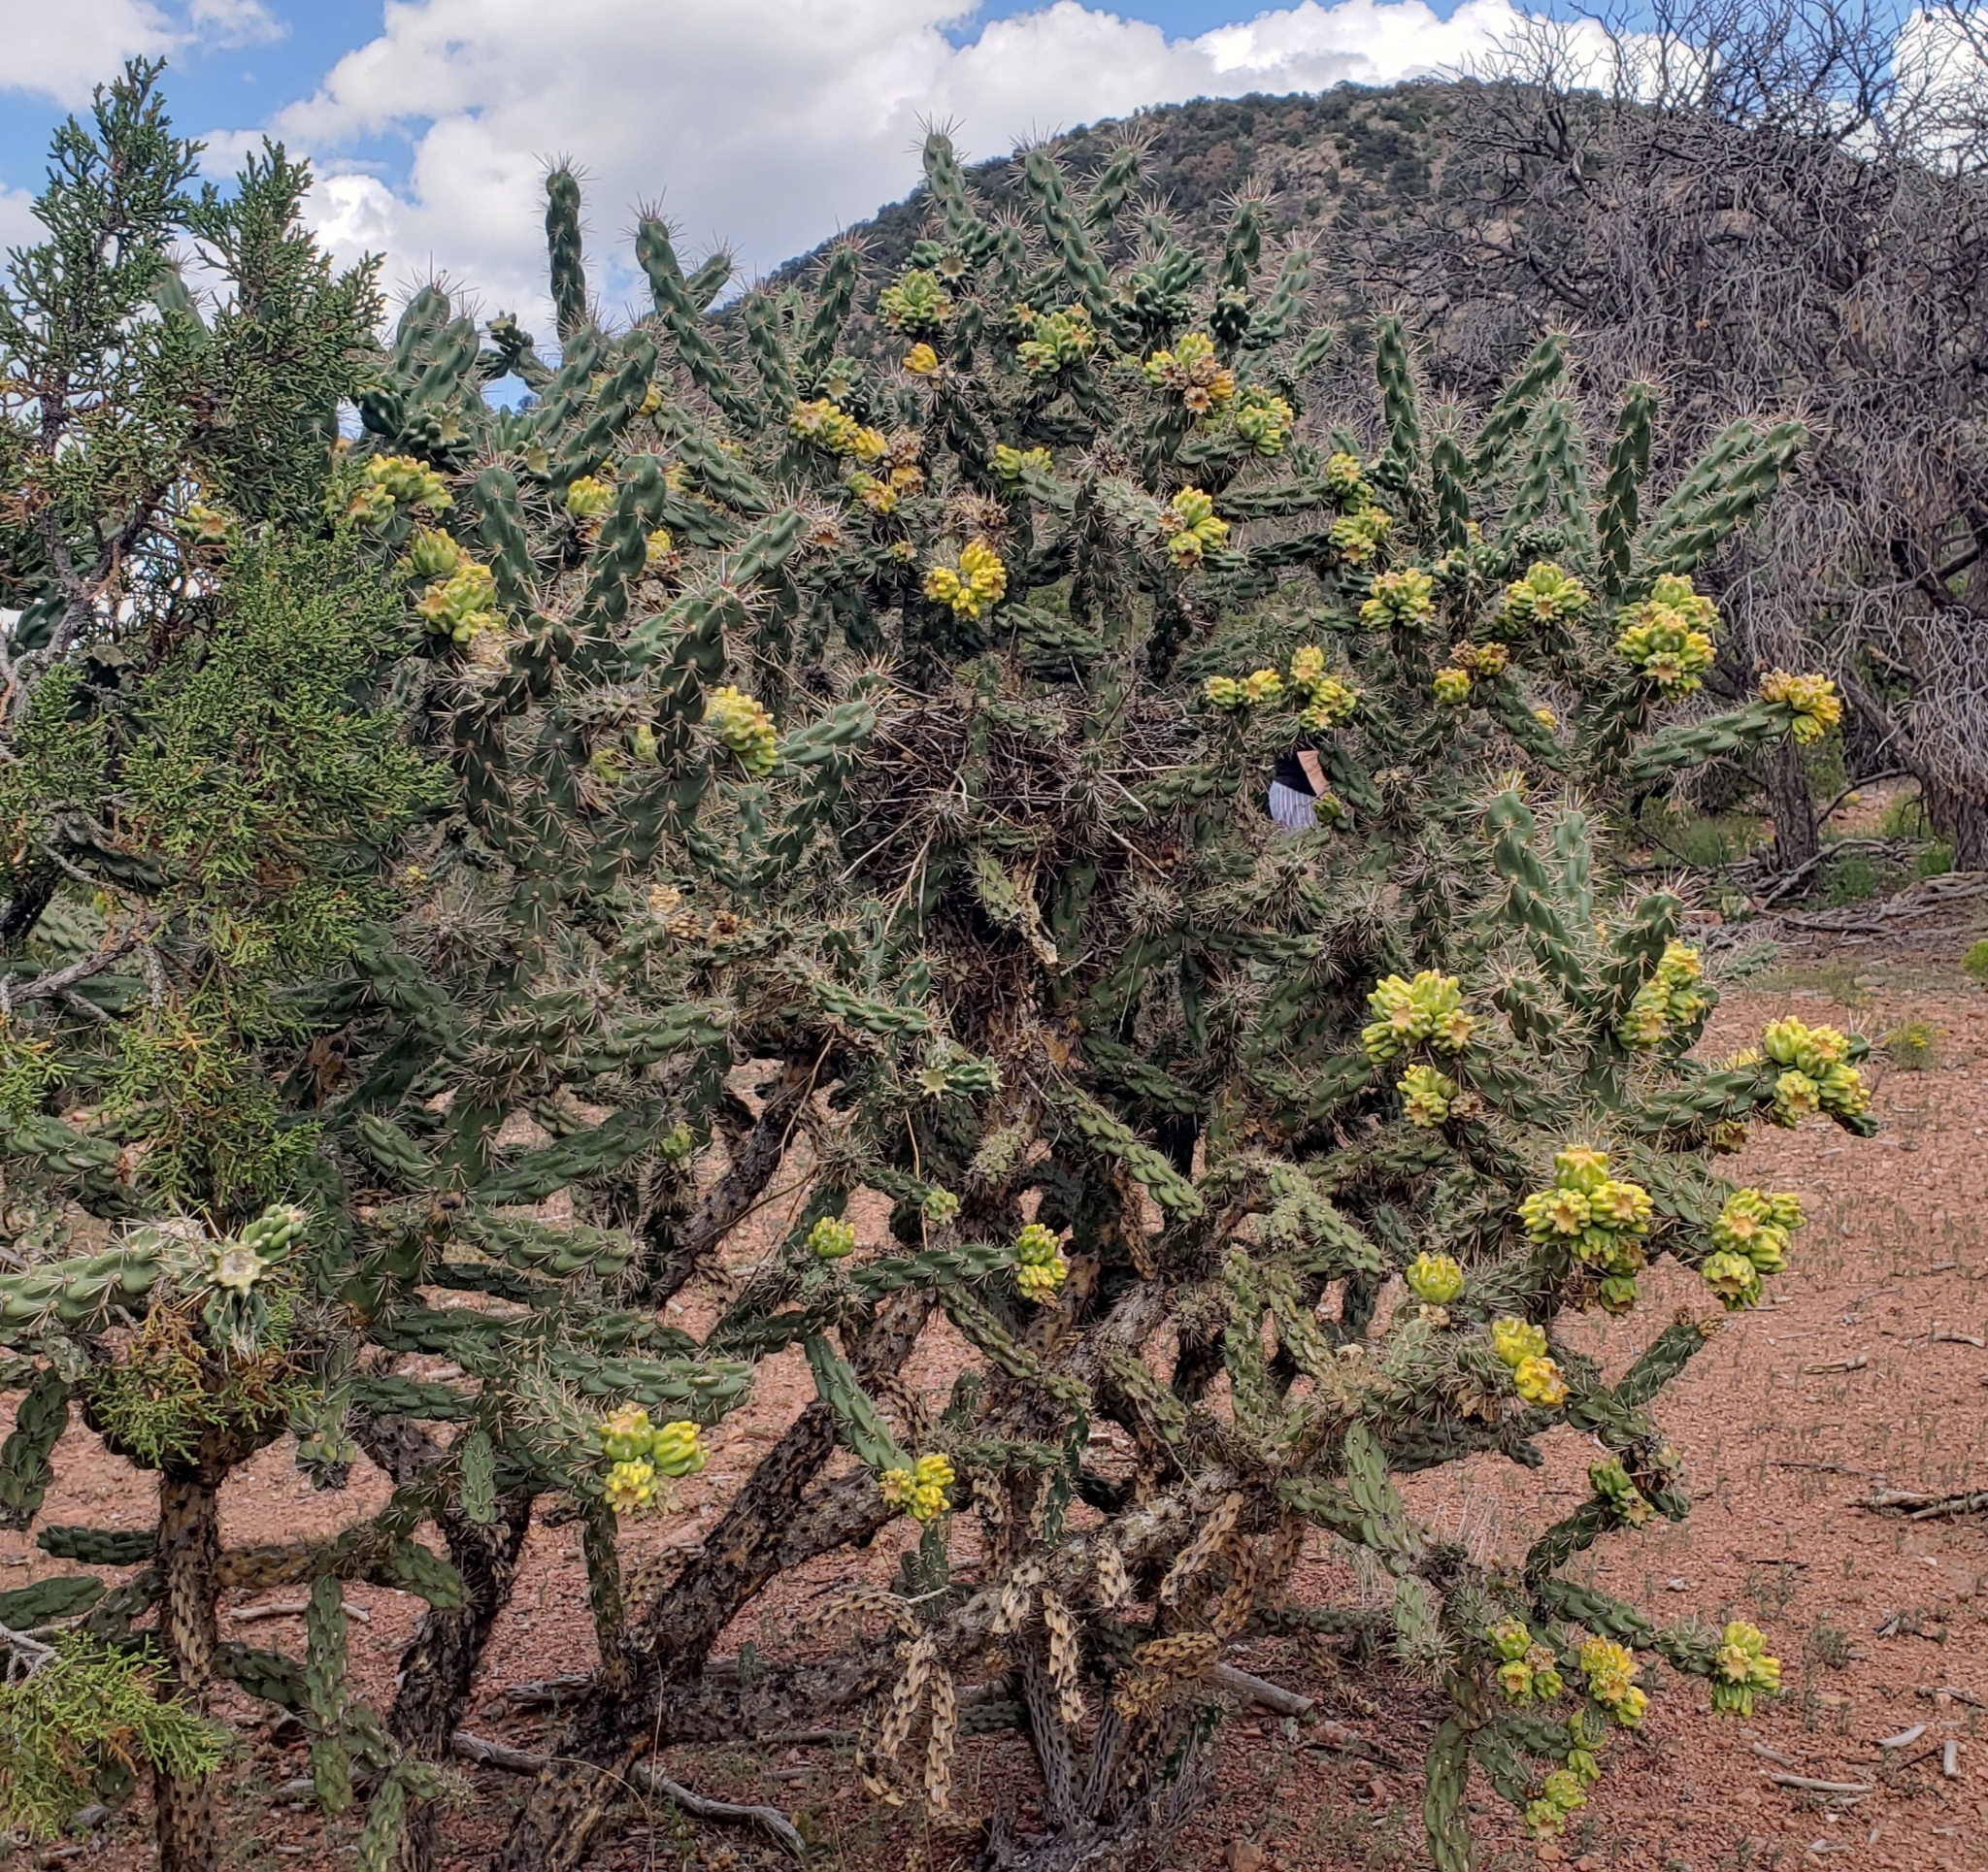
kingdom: Plantae
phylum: Tracheophyta
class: Magnoliopsida
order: Caryophyllales
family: Cactaceae
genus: Cylindropuntia
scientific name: Cylindropuntia imbricata
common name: Candelabrum cactus
